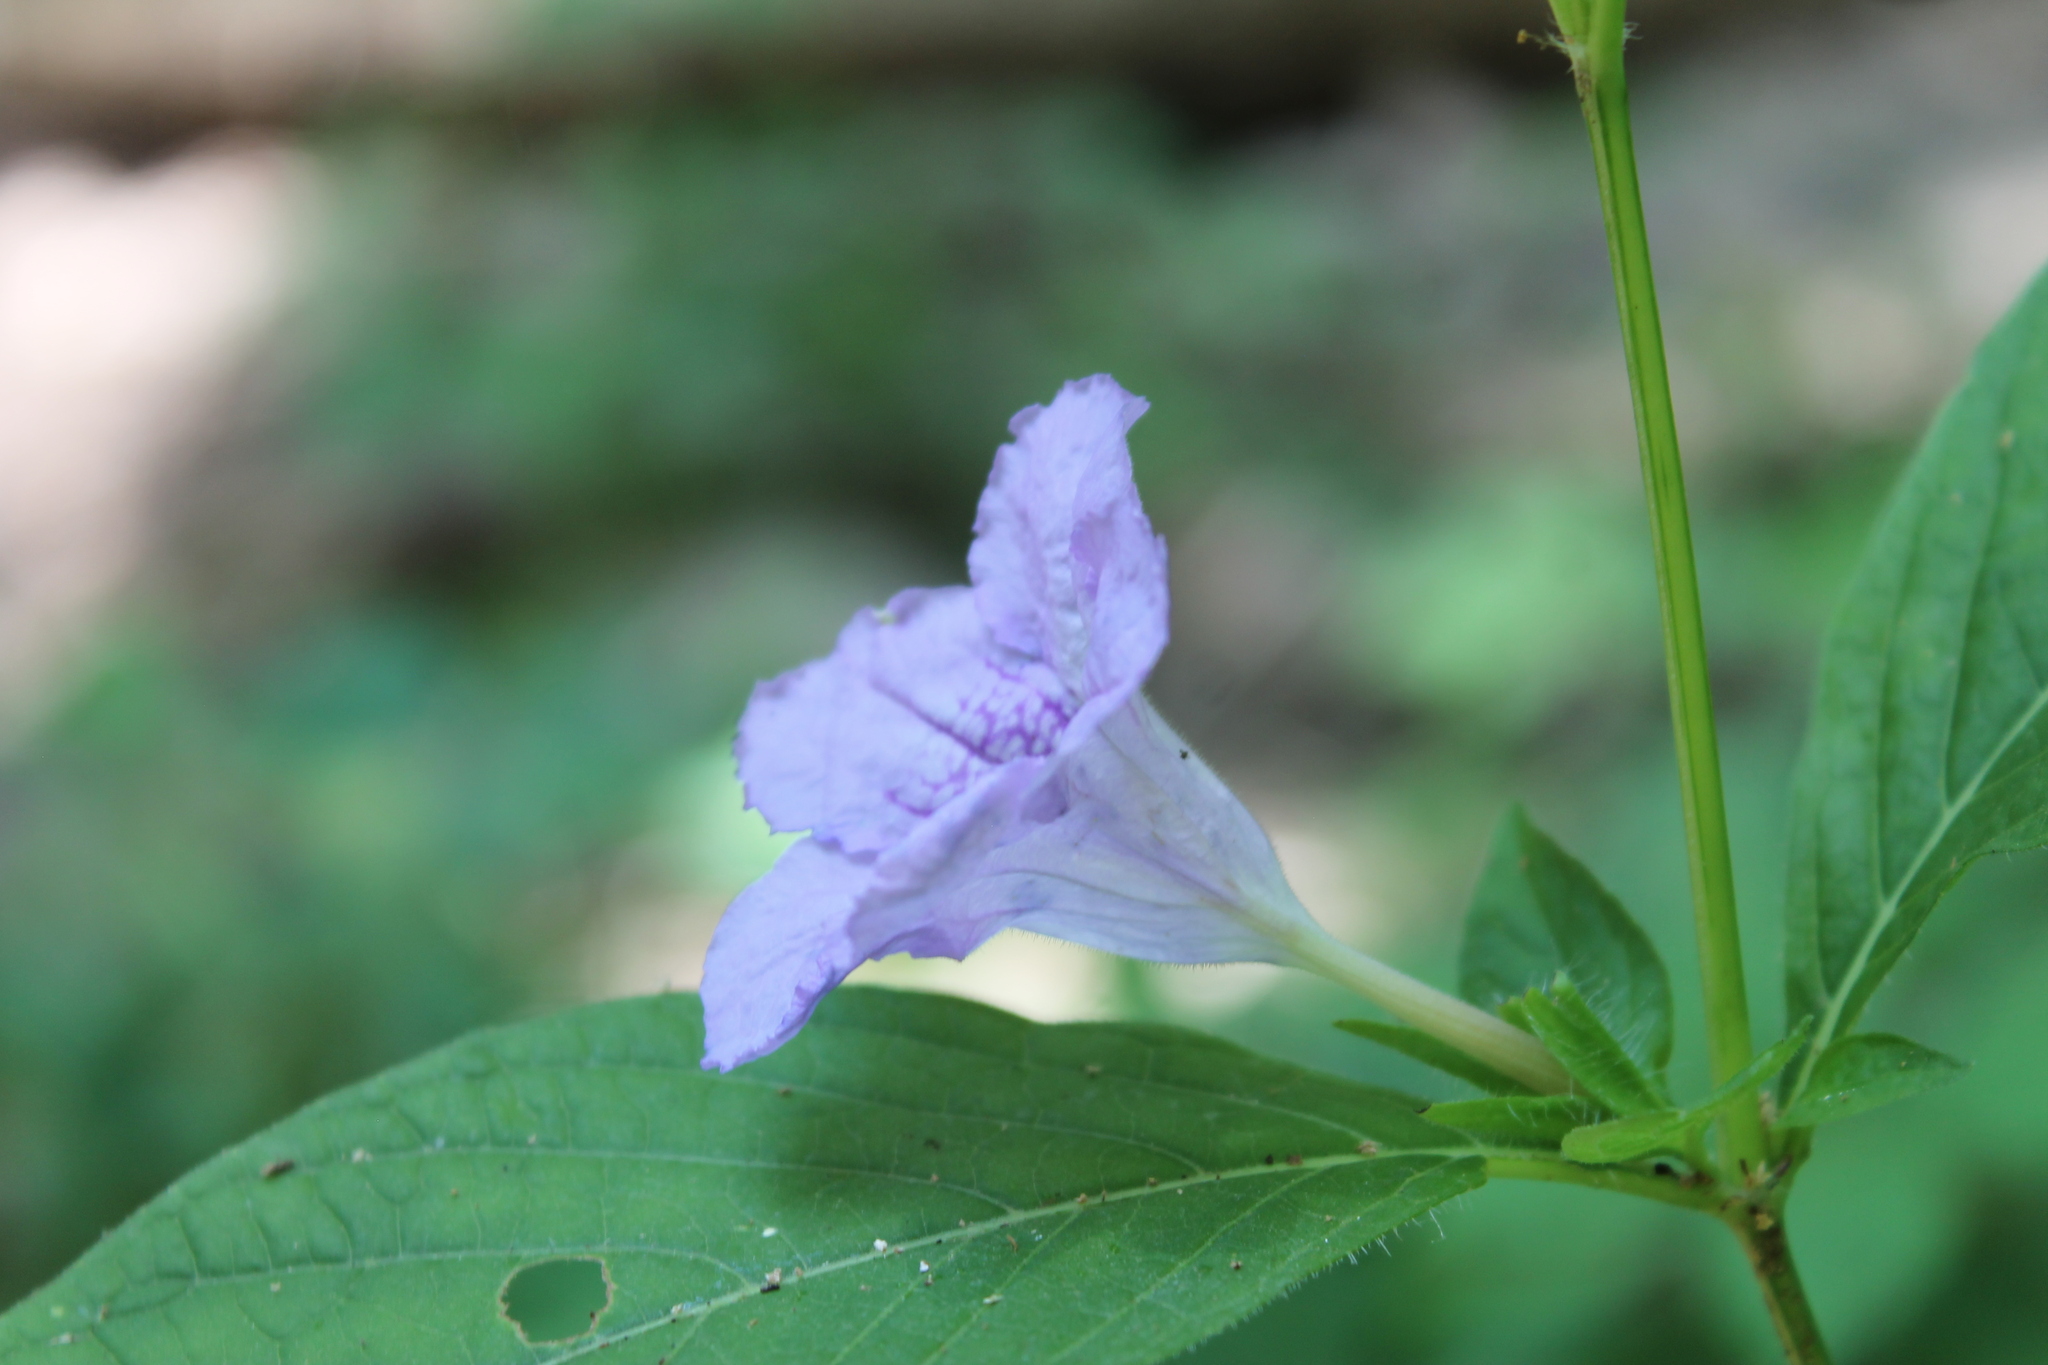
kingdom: Plantae
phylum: Tracheophyta
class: Magnoliopsida
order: Lamiales
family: Acanthaceae
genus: Ruellia
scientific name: Ruellia strepens
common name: Limestone wild petunia
